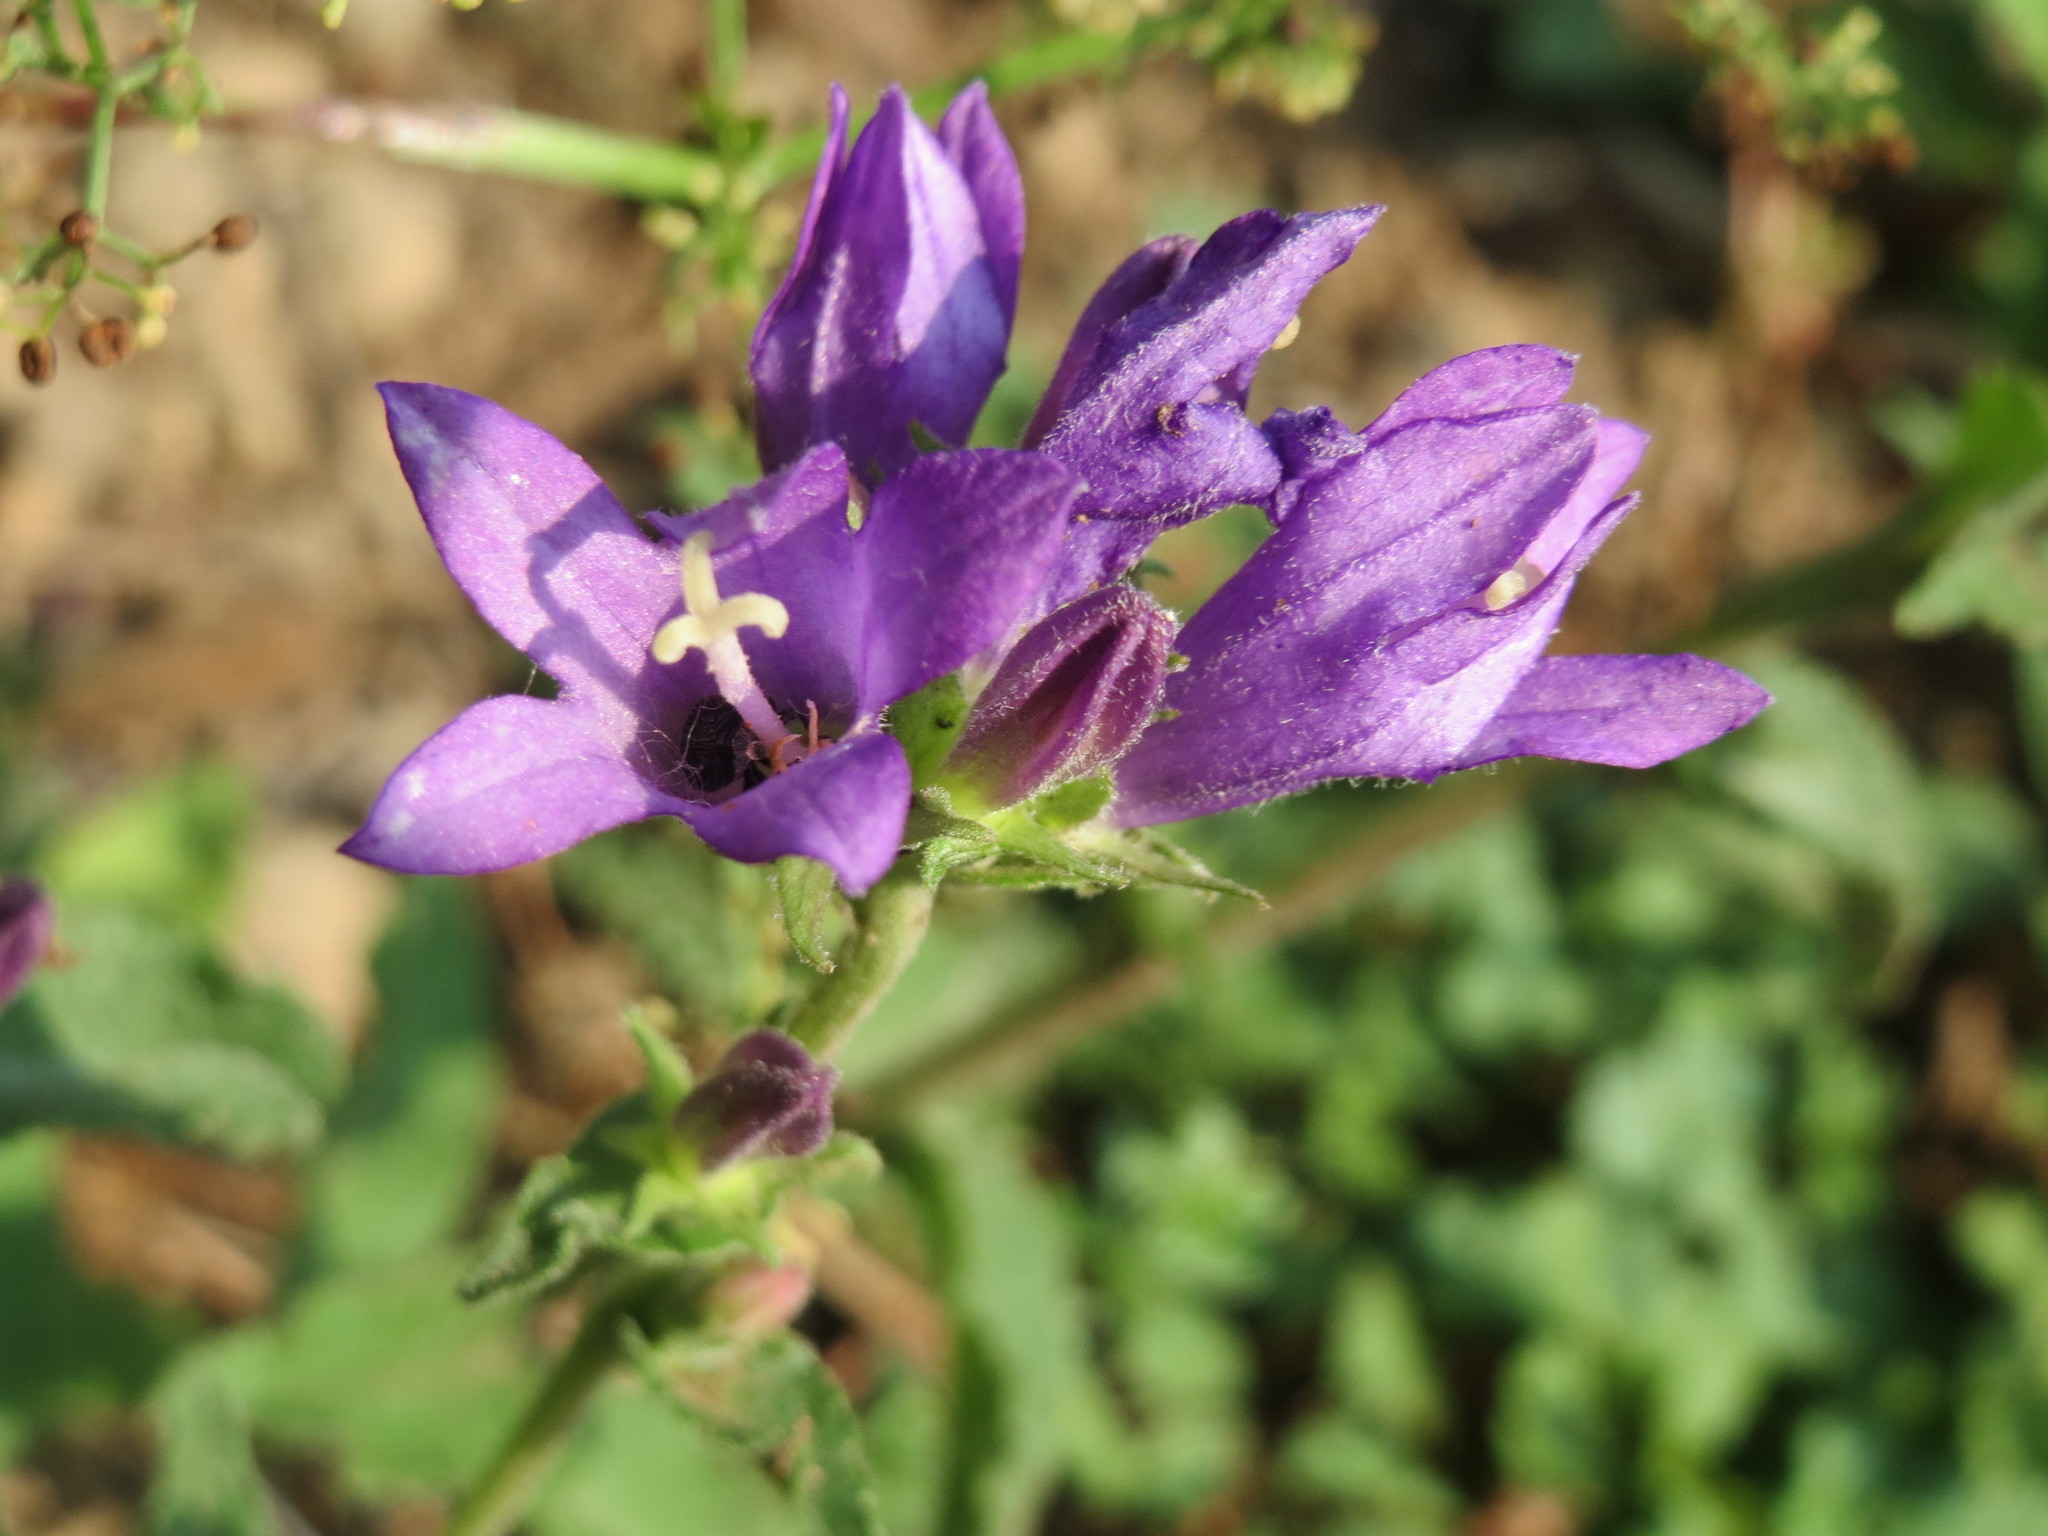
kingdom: Plantae
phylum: Tracheophyta
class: Magnoliopsida
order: Asterales
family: Campanulaceae
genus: Campanula
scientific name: Campanula glomerata
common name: Clustered bellflower
